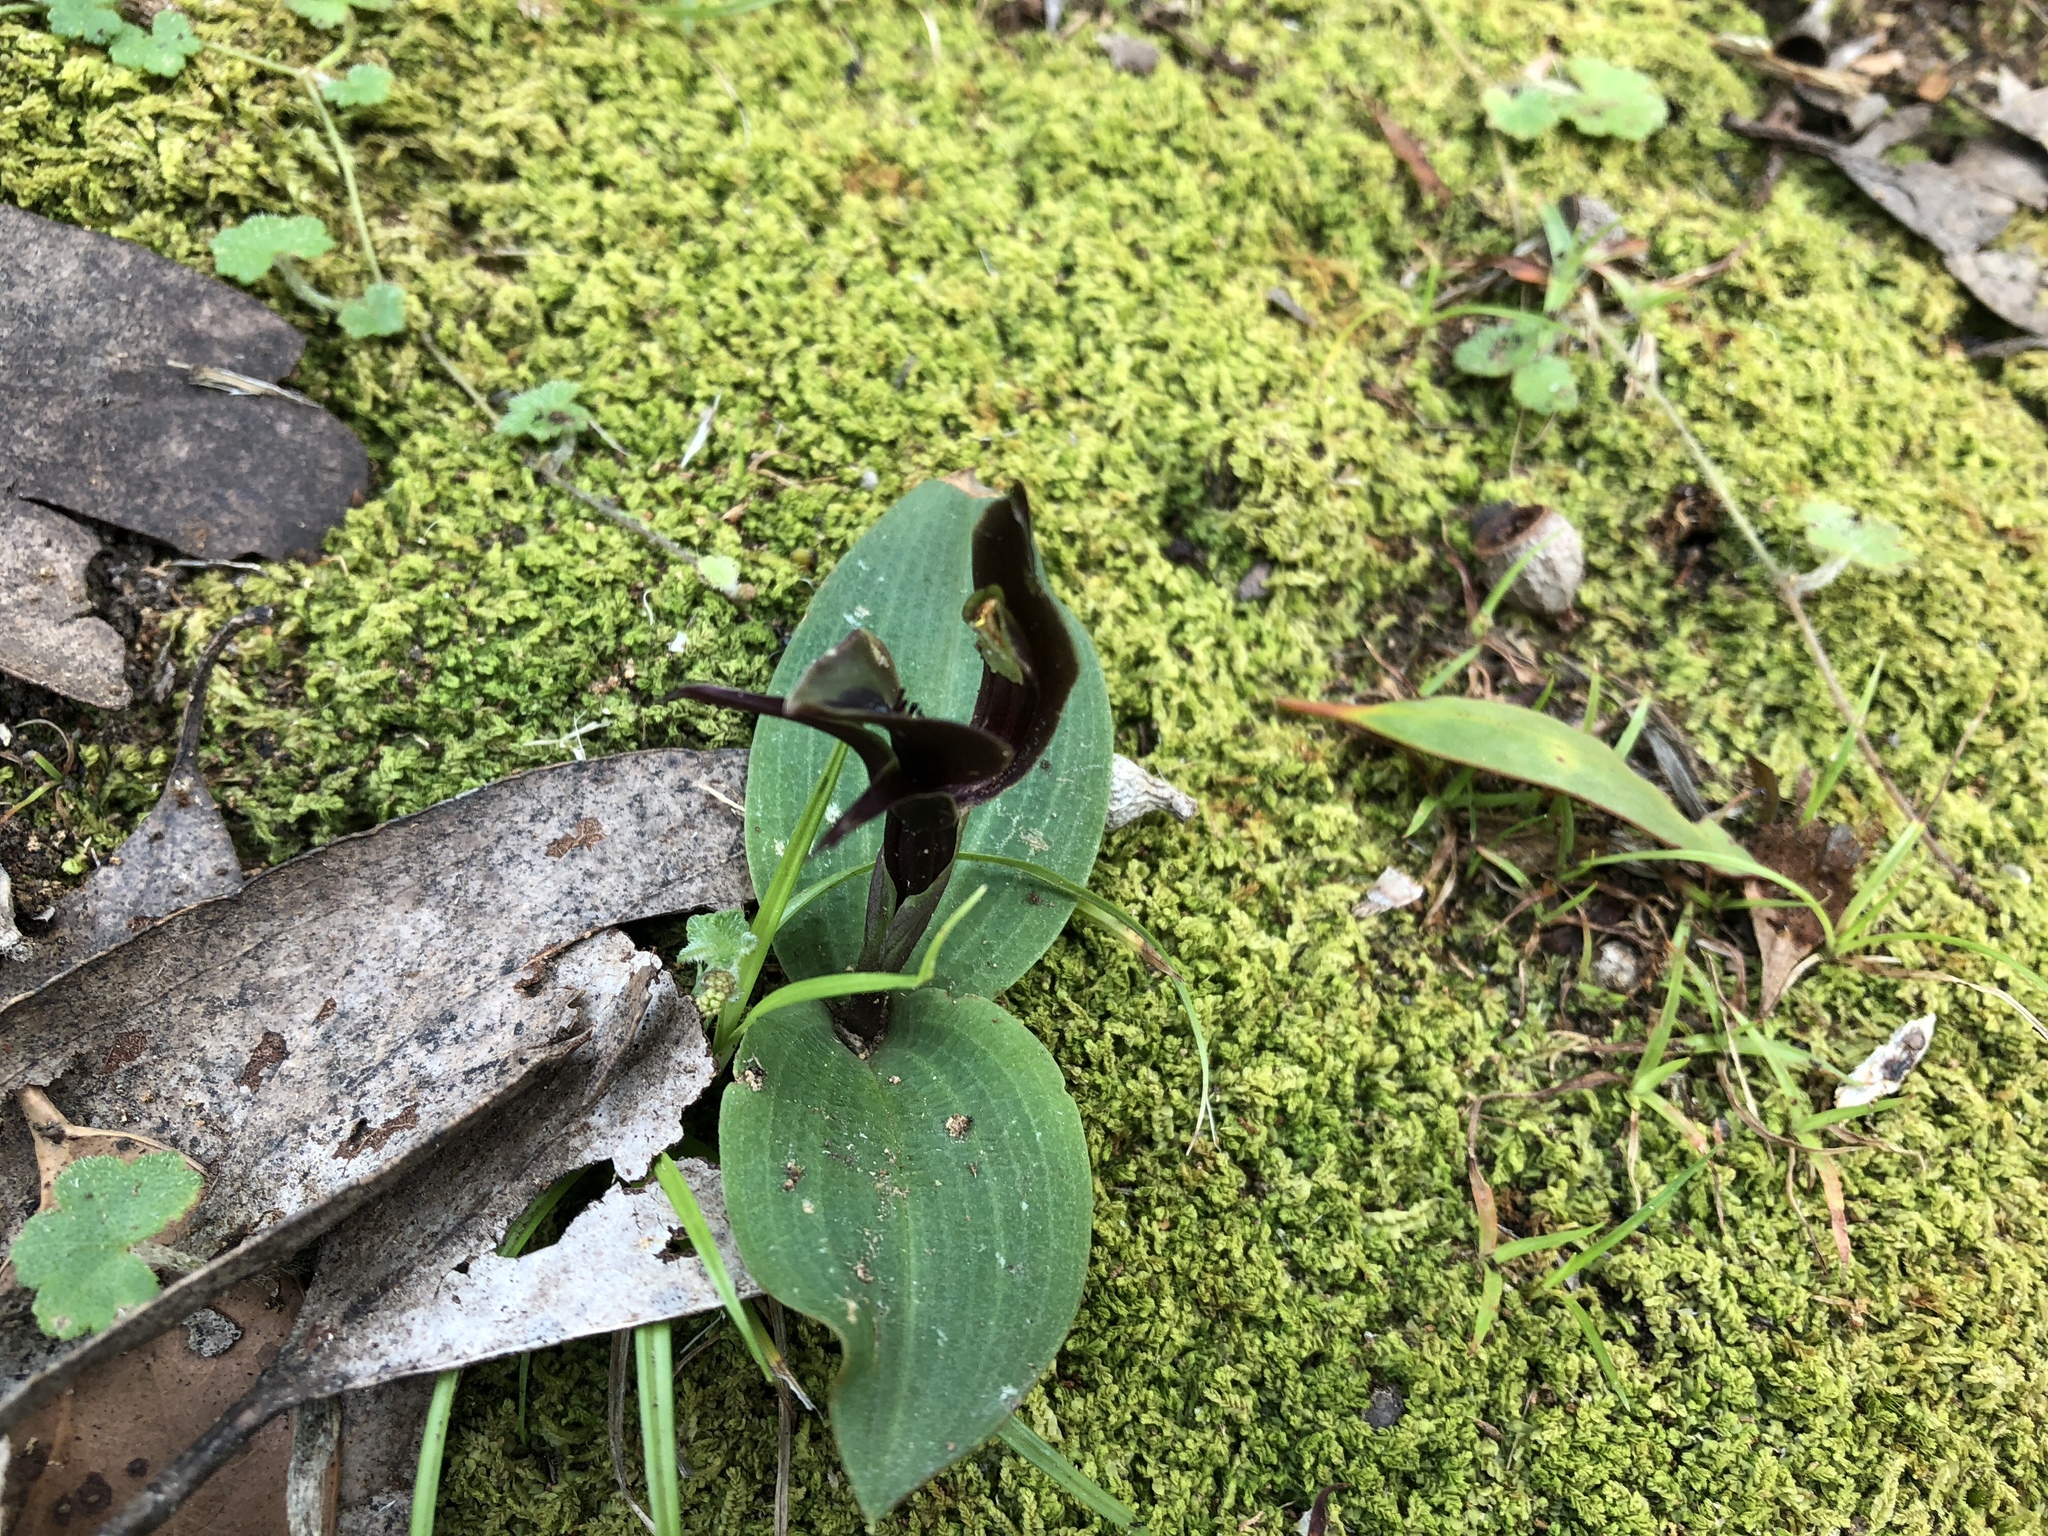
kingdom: Plantae
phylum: Tracheophyta
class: Liliopsida
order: Asparagales
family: Orchidaceae
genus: Chiloglottis
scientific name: Chiloglottis valida
